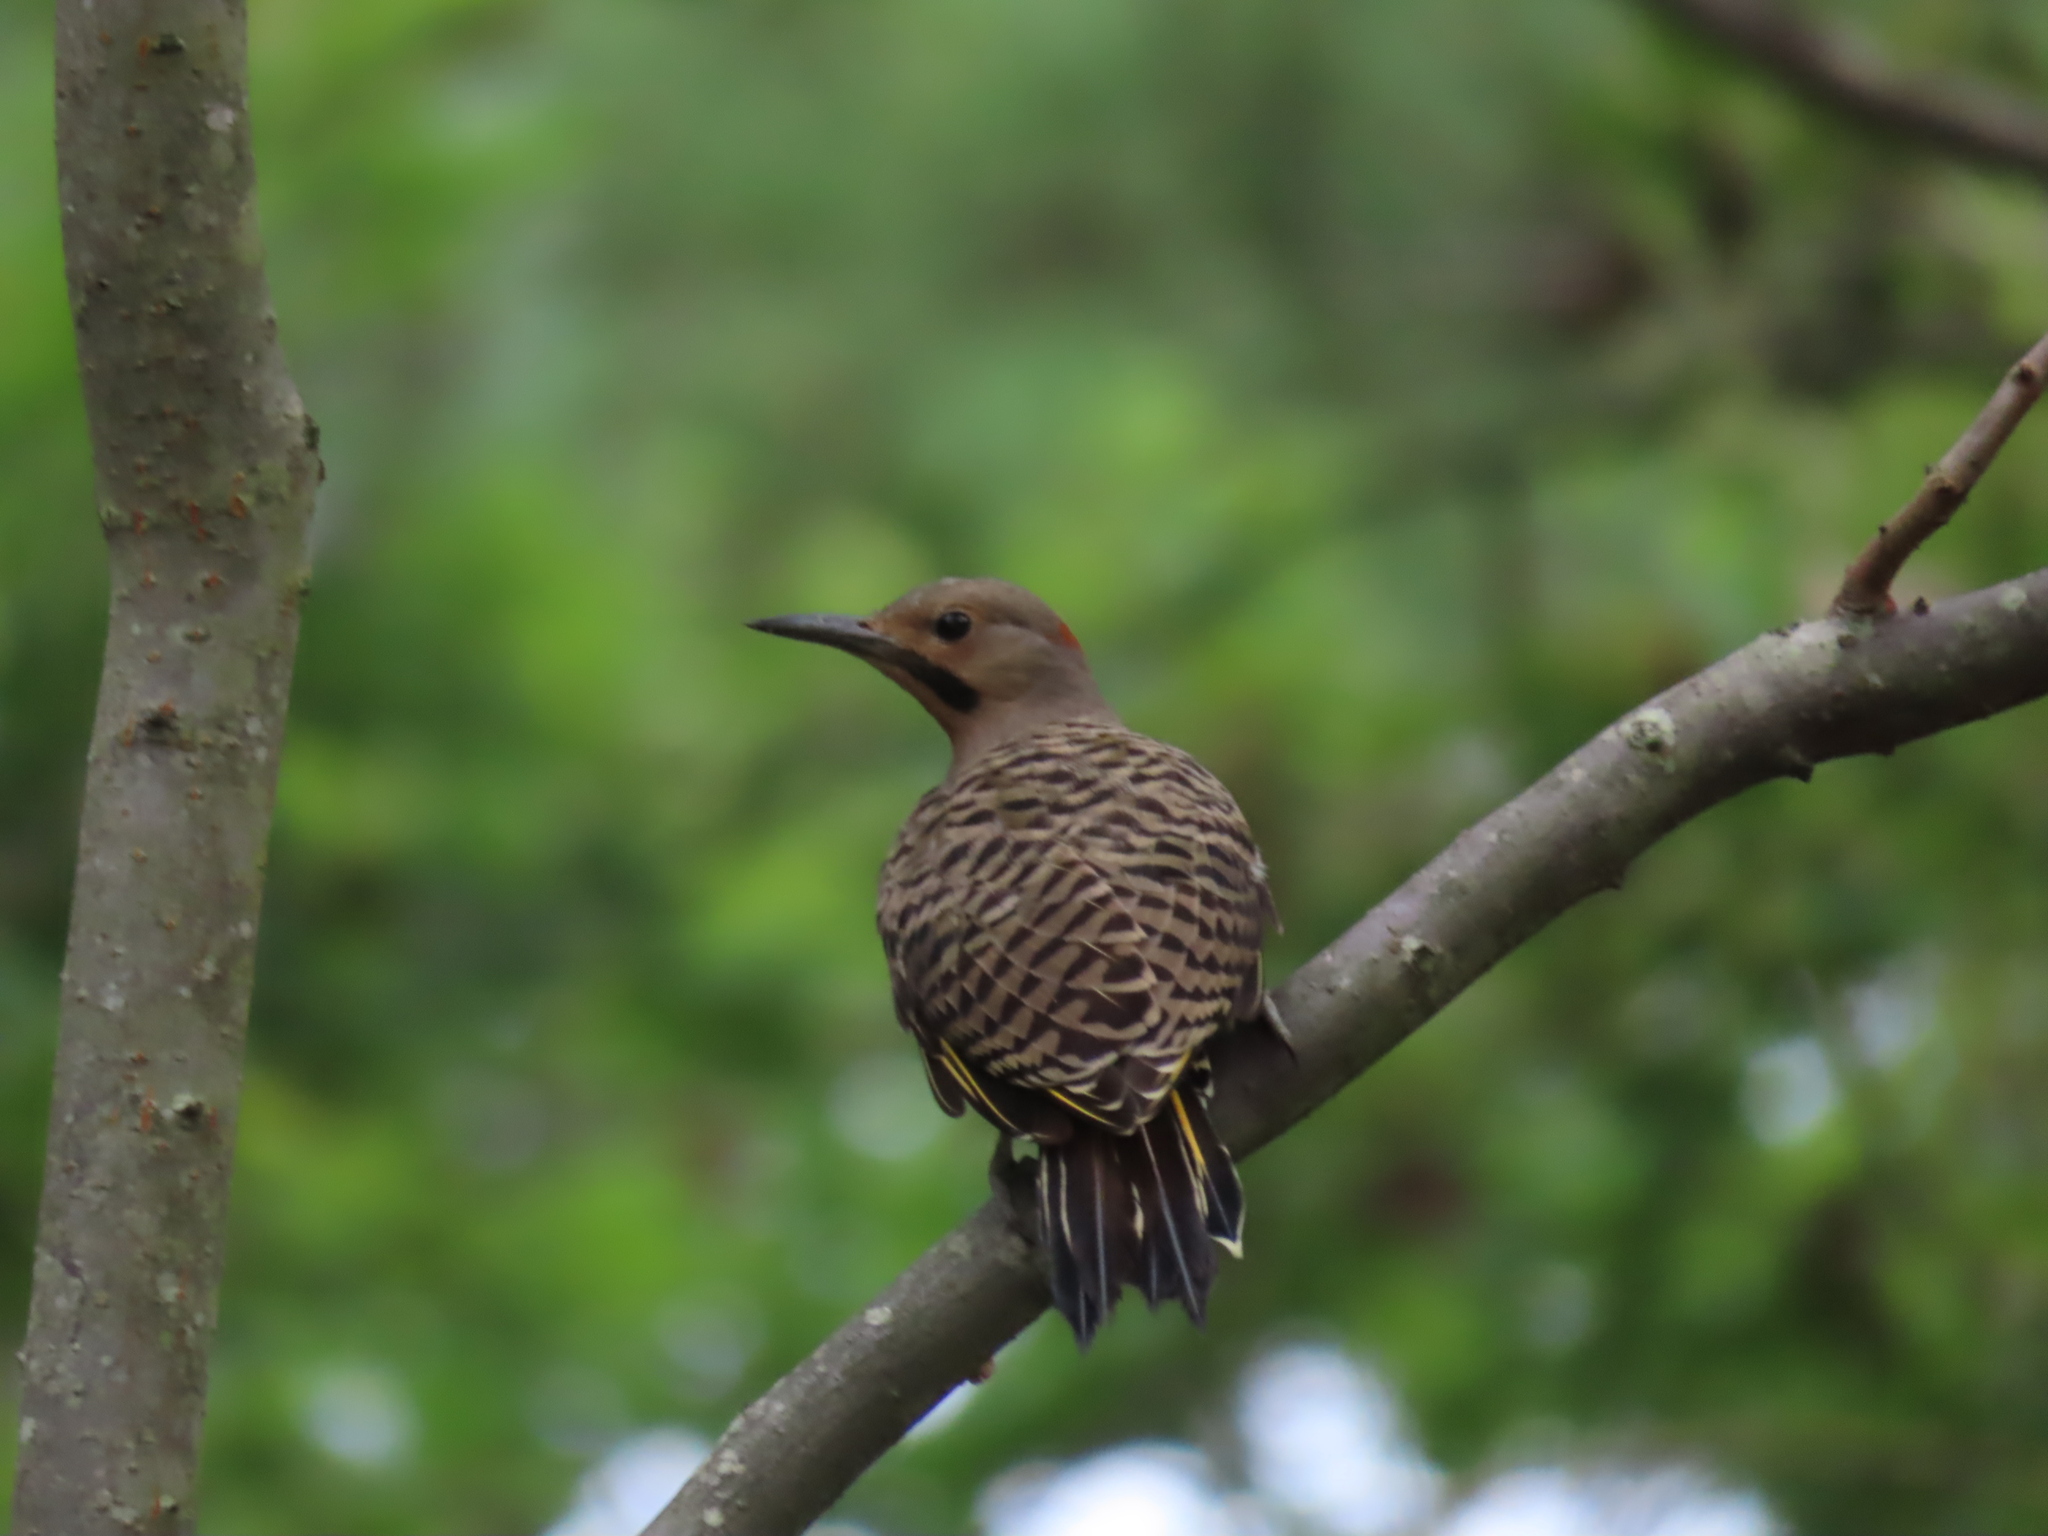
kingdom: Animalia
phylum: Chordata
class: Aves
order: Piciformes
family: Picidae
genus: Colaptes
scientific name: Colaptes auratus
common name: Northern flicker
